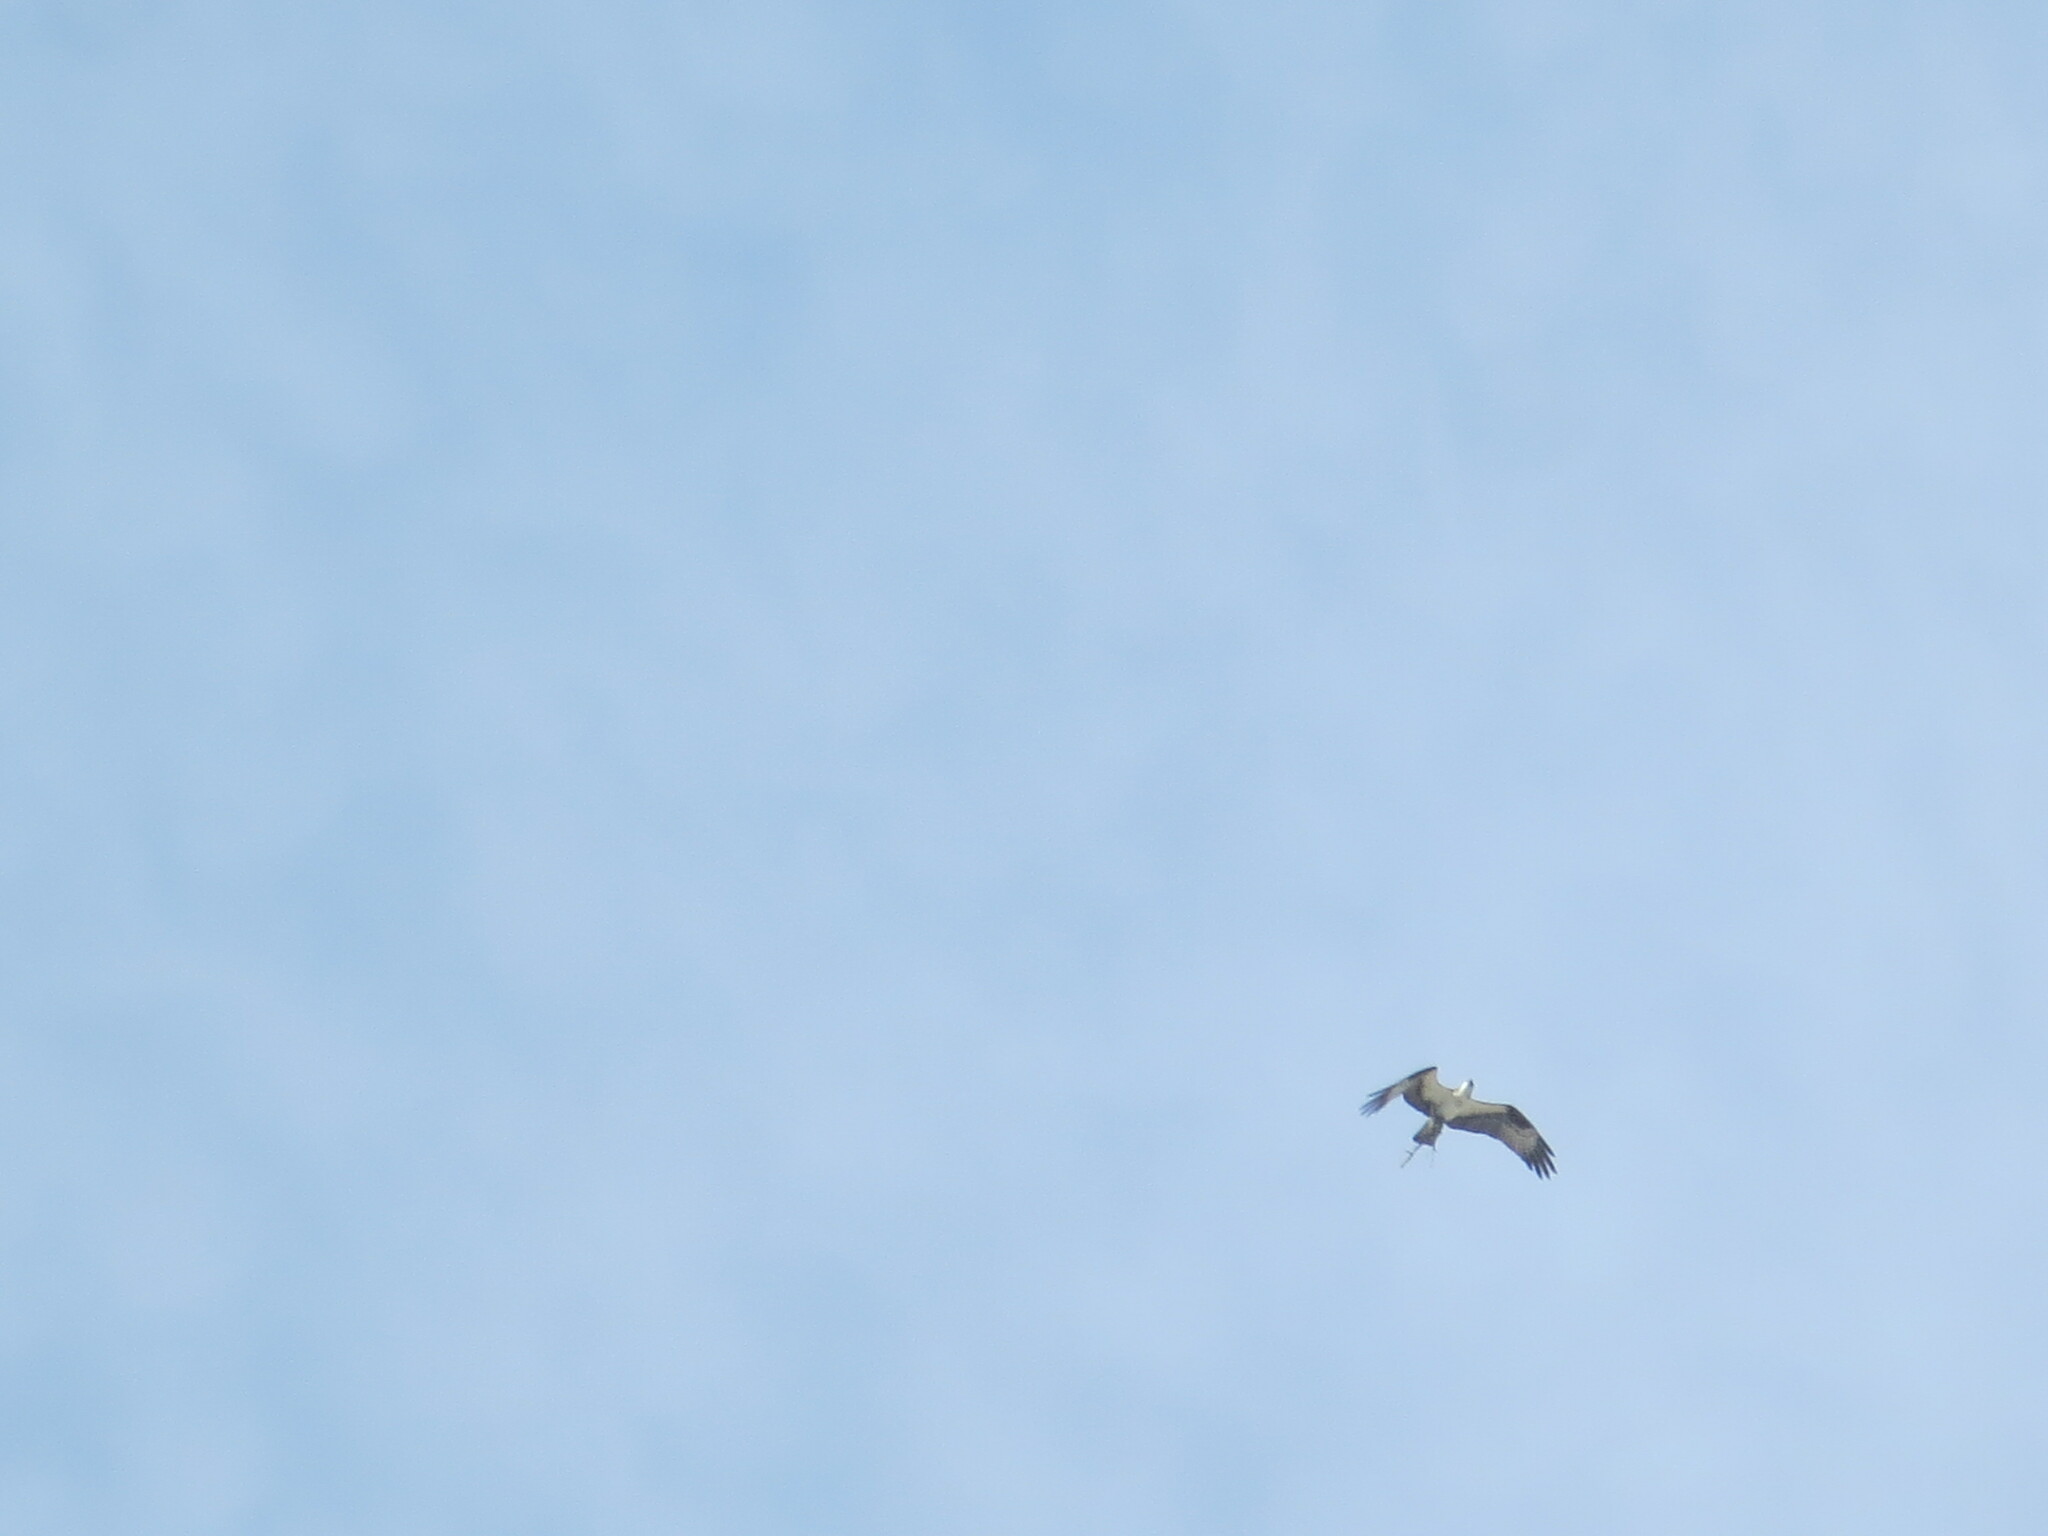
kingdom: Animalia
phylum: Chordata
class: Aves
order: Accipitriformes
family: Pandionidae
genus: Pandion
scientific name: Pandion haliaetus
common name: Osprey
